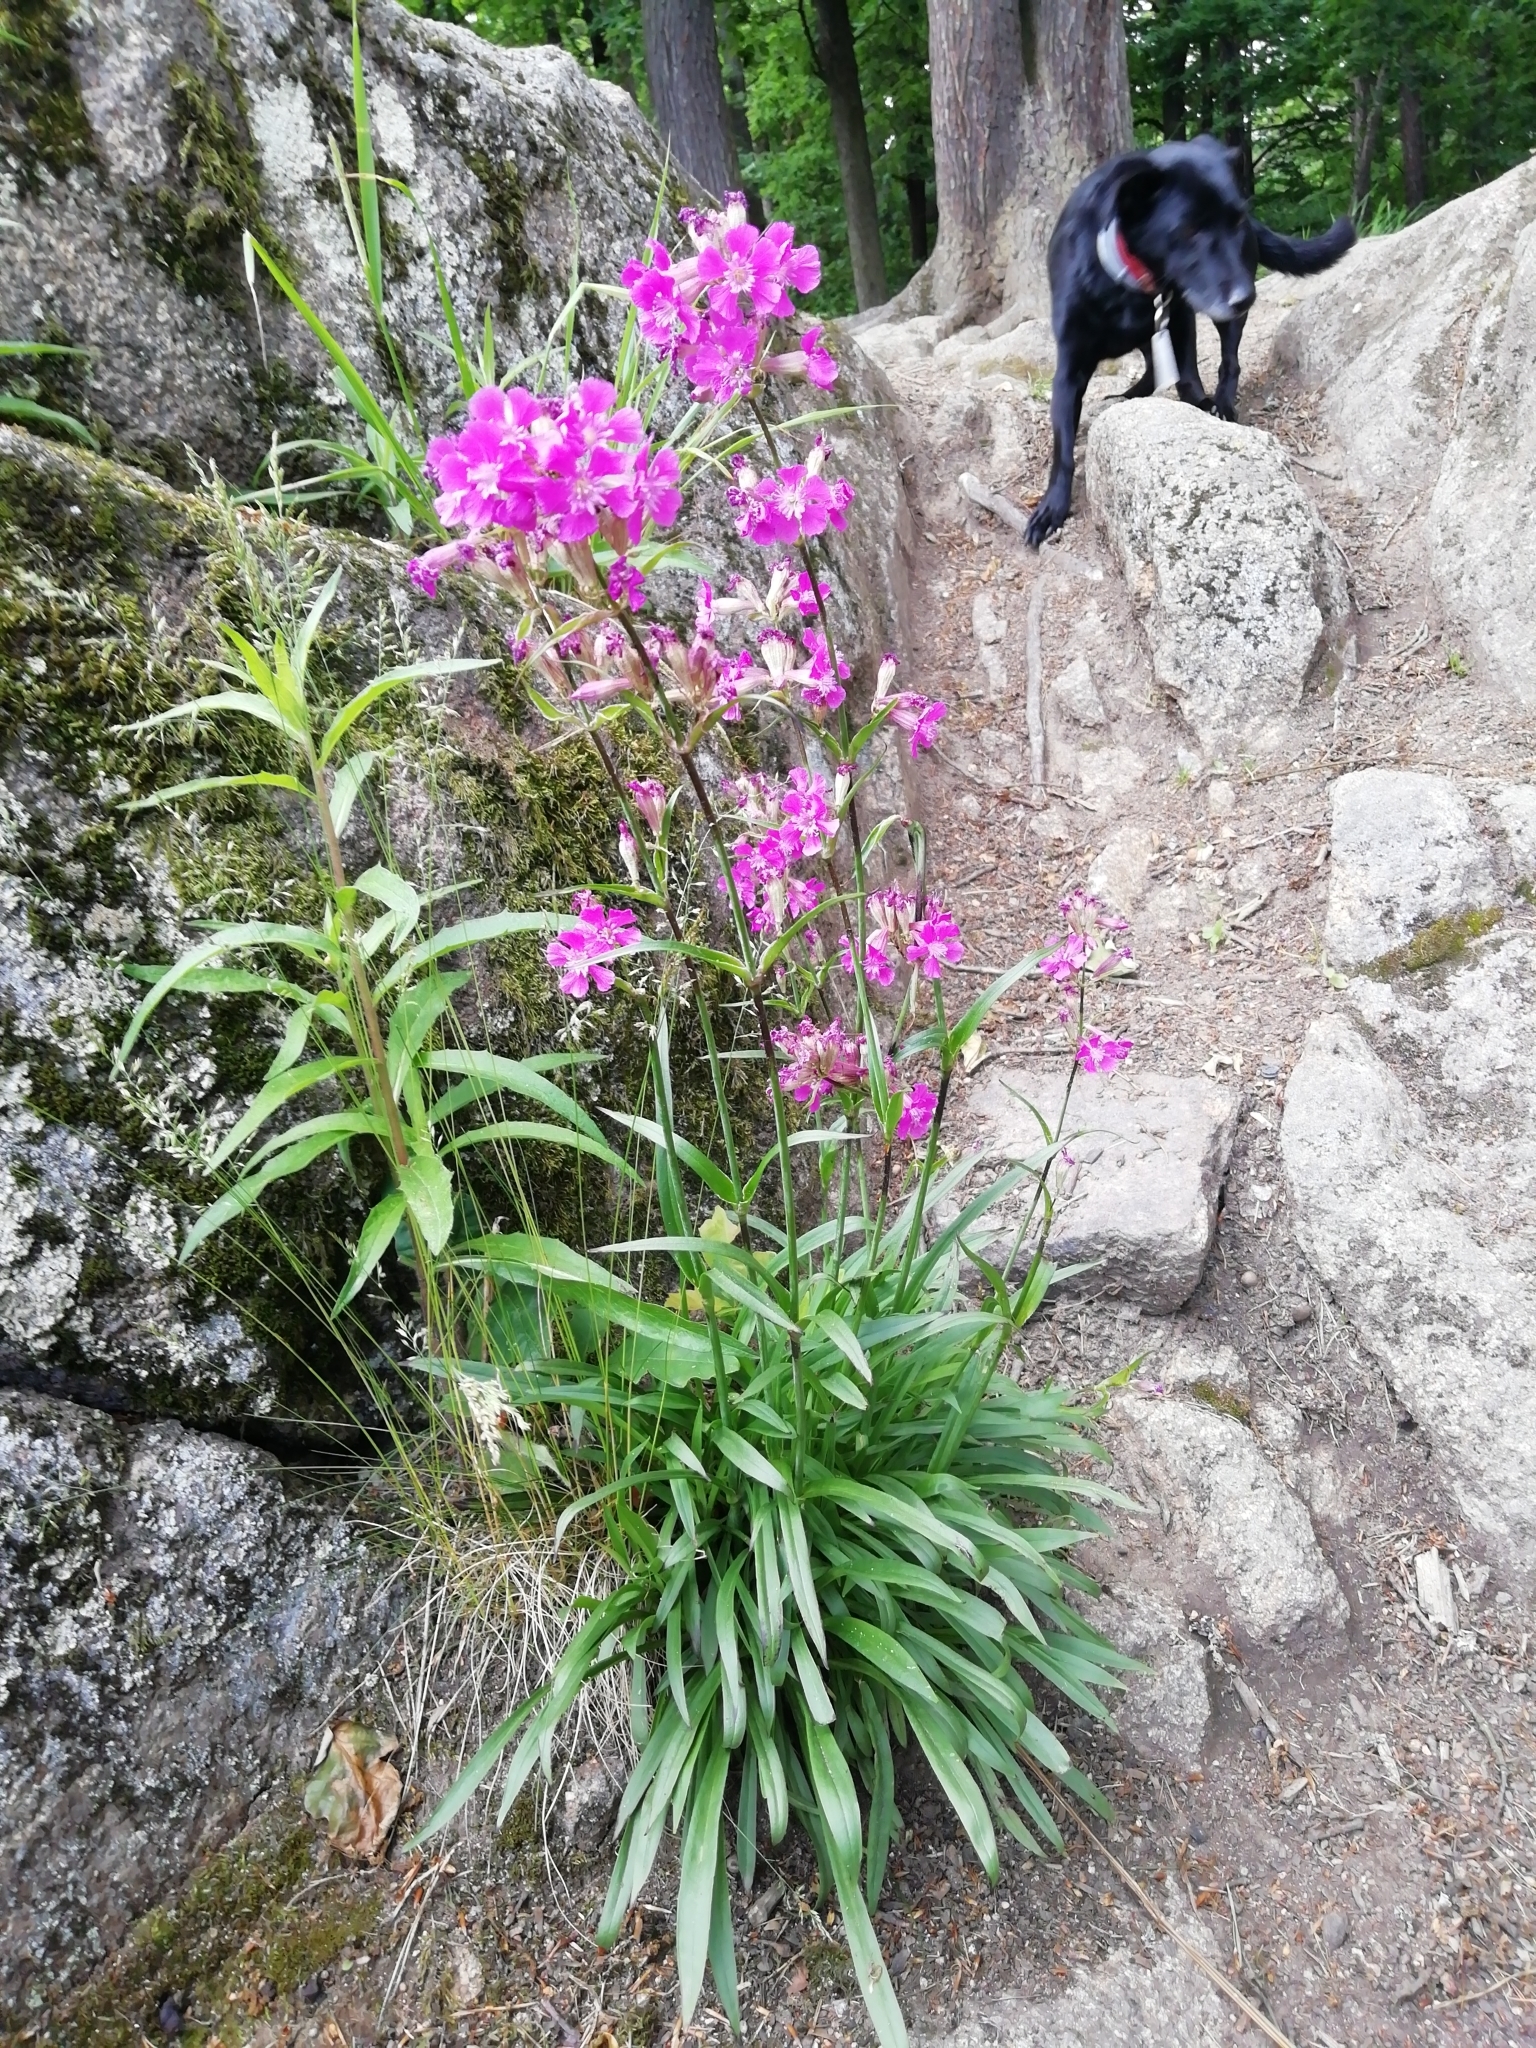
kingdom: Plantae
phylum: Tracheophyta
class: Magnoliopsida
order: Caryophyllales
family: Caryophyllaceae
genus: Viscaria
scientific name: Viscaria vulgaris
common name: Clammy campion
